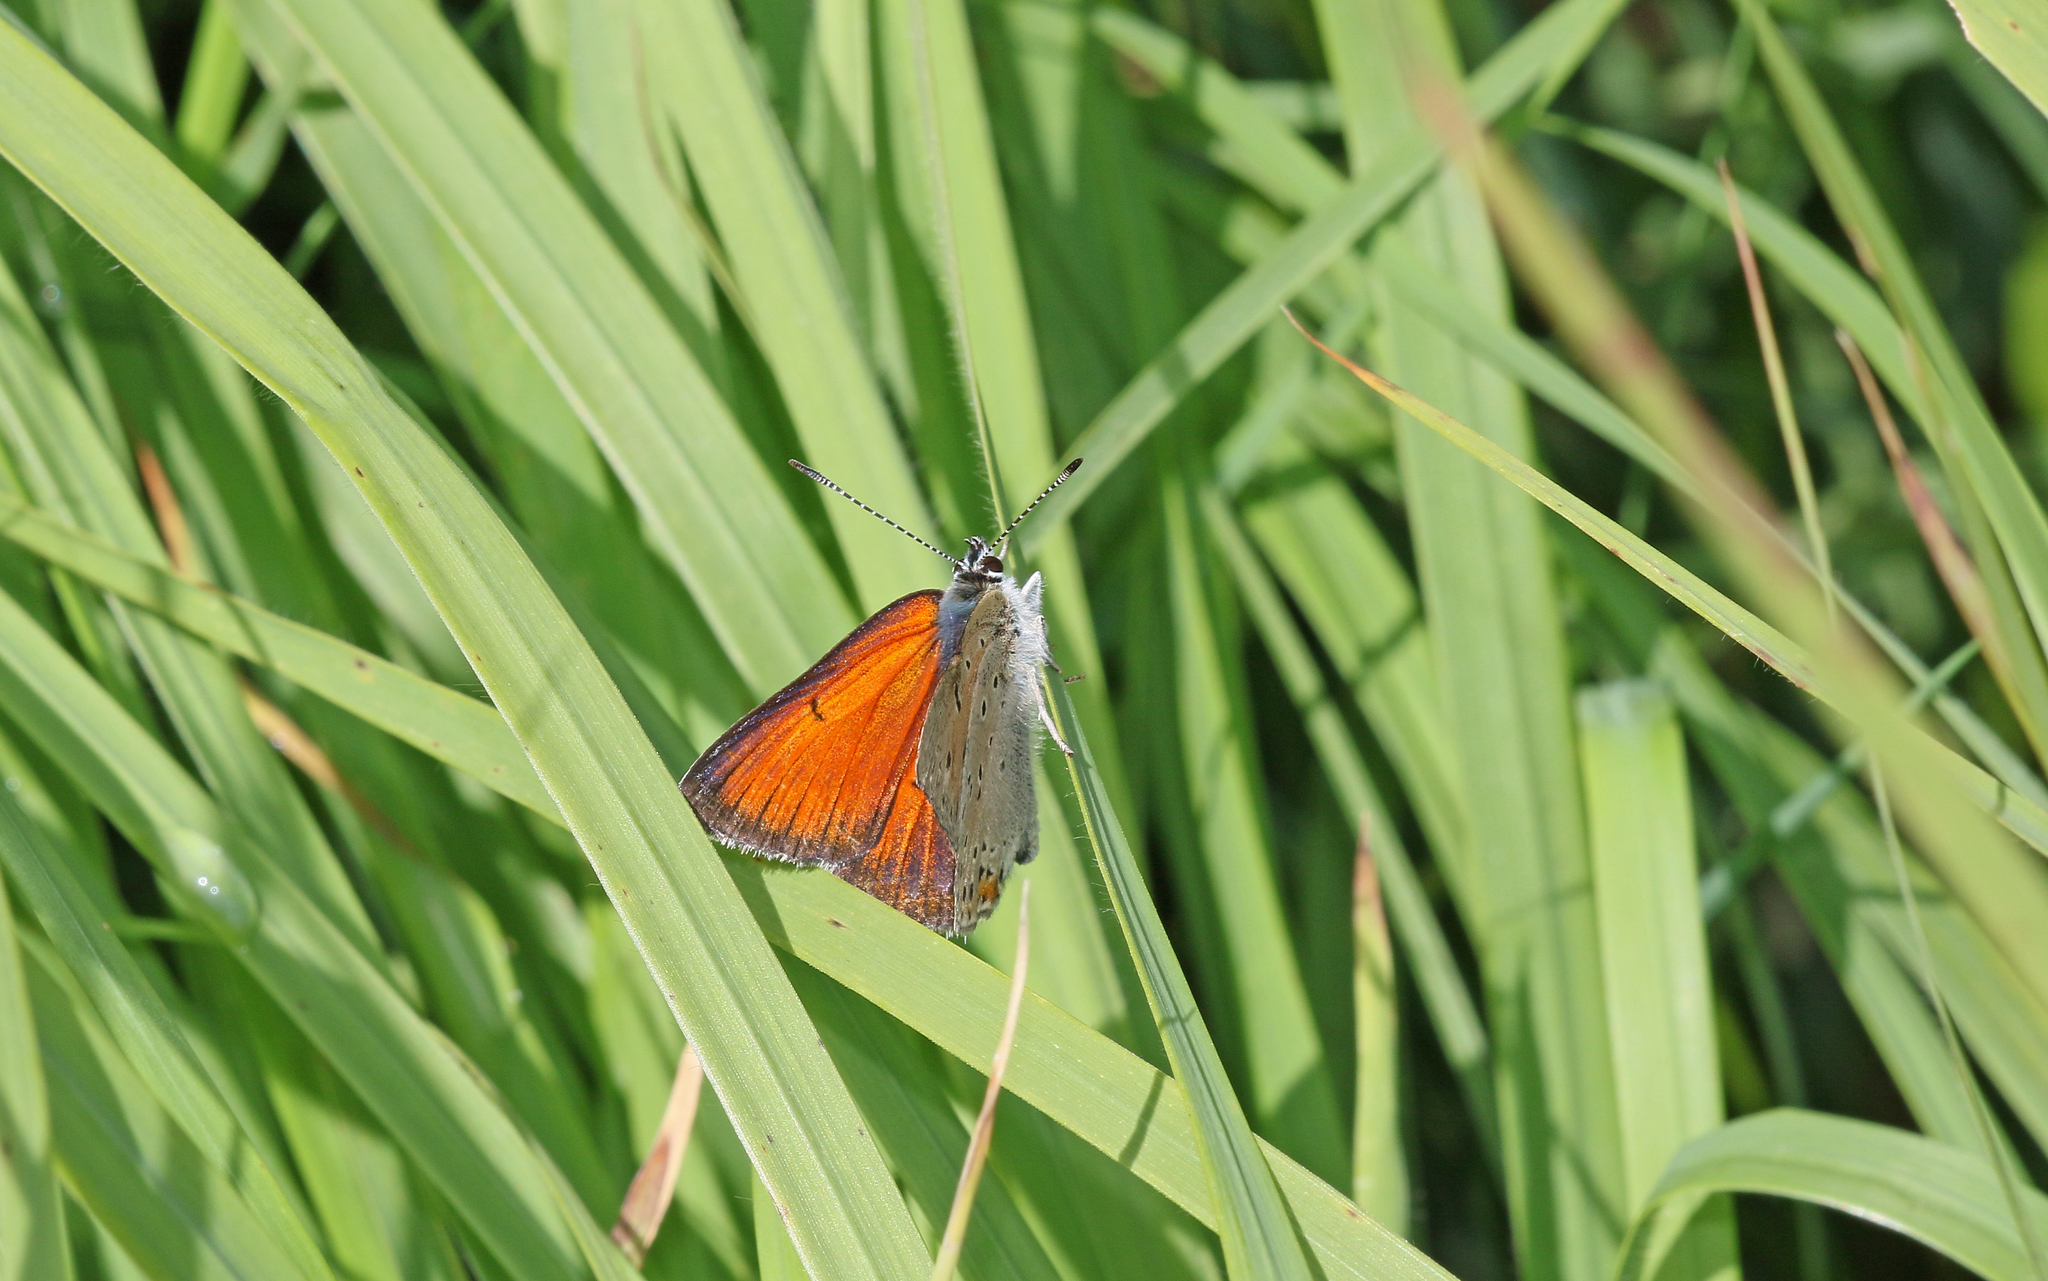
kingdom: Animalia
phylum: Arthropoda
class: Insecta
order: Lepidoptera
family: Lycaenidae
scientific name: Lycaenidae
